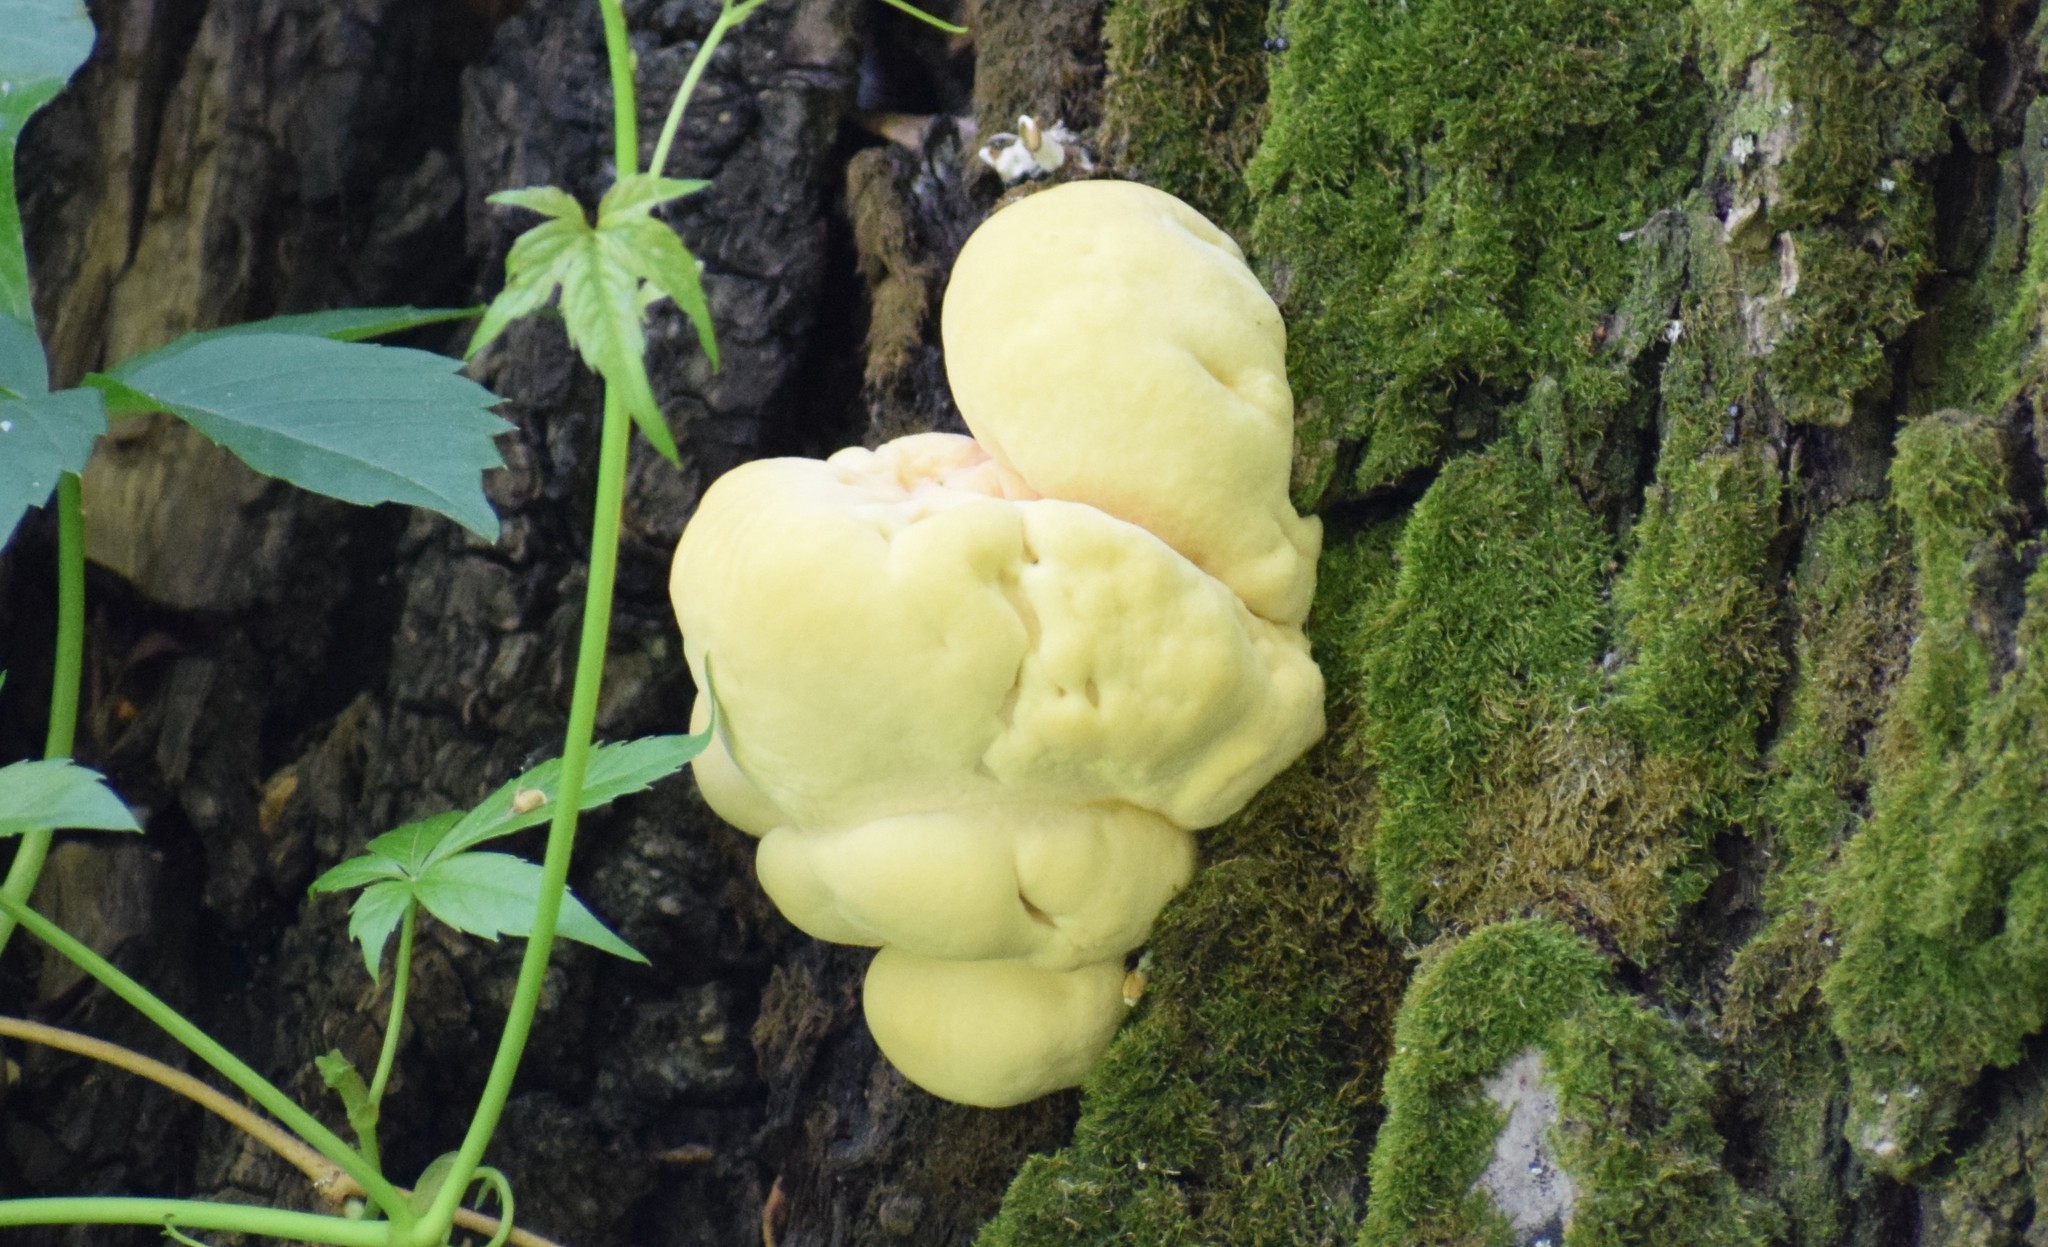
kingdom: Fungi
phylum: Basidiomycota
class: Agaricomycetes
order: Polyporales
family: Laetiporaceae
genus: Laetiporus
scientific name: Laetiporus sulphureus
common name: Chicken of the woods
